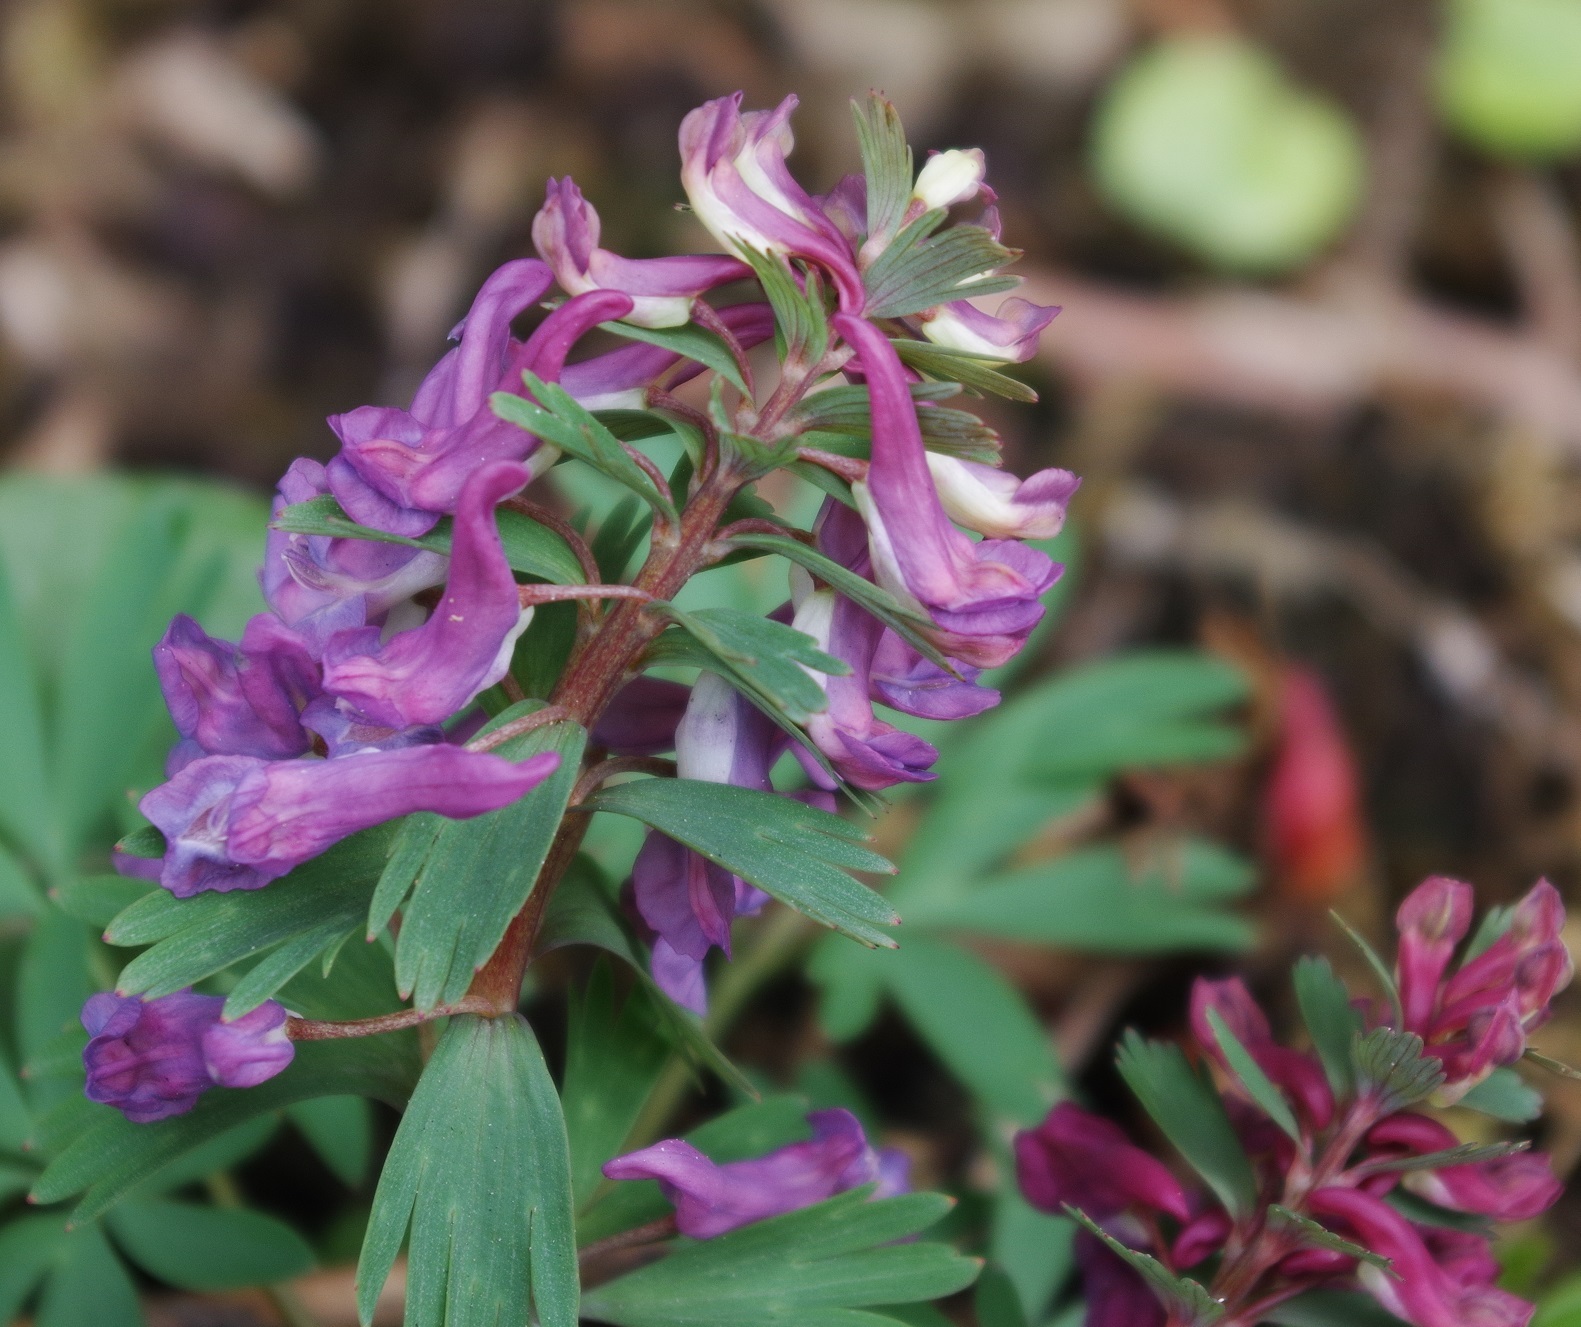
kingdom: Plantae
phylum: Tracheophyta
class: Magnoliopsida
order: Ranunculales
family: Papaveraceae
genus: Corydalis
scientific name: Corydalis solida
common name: Bird-in-a-bush
